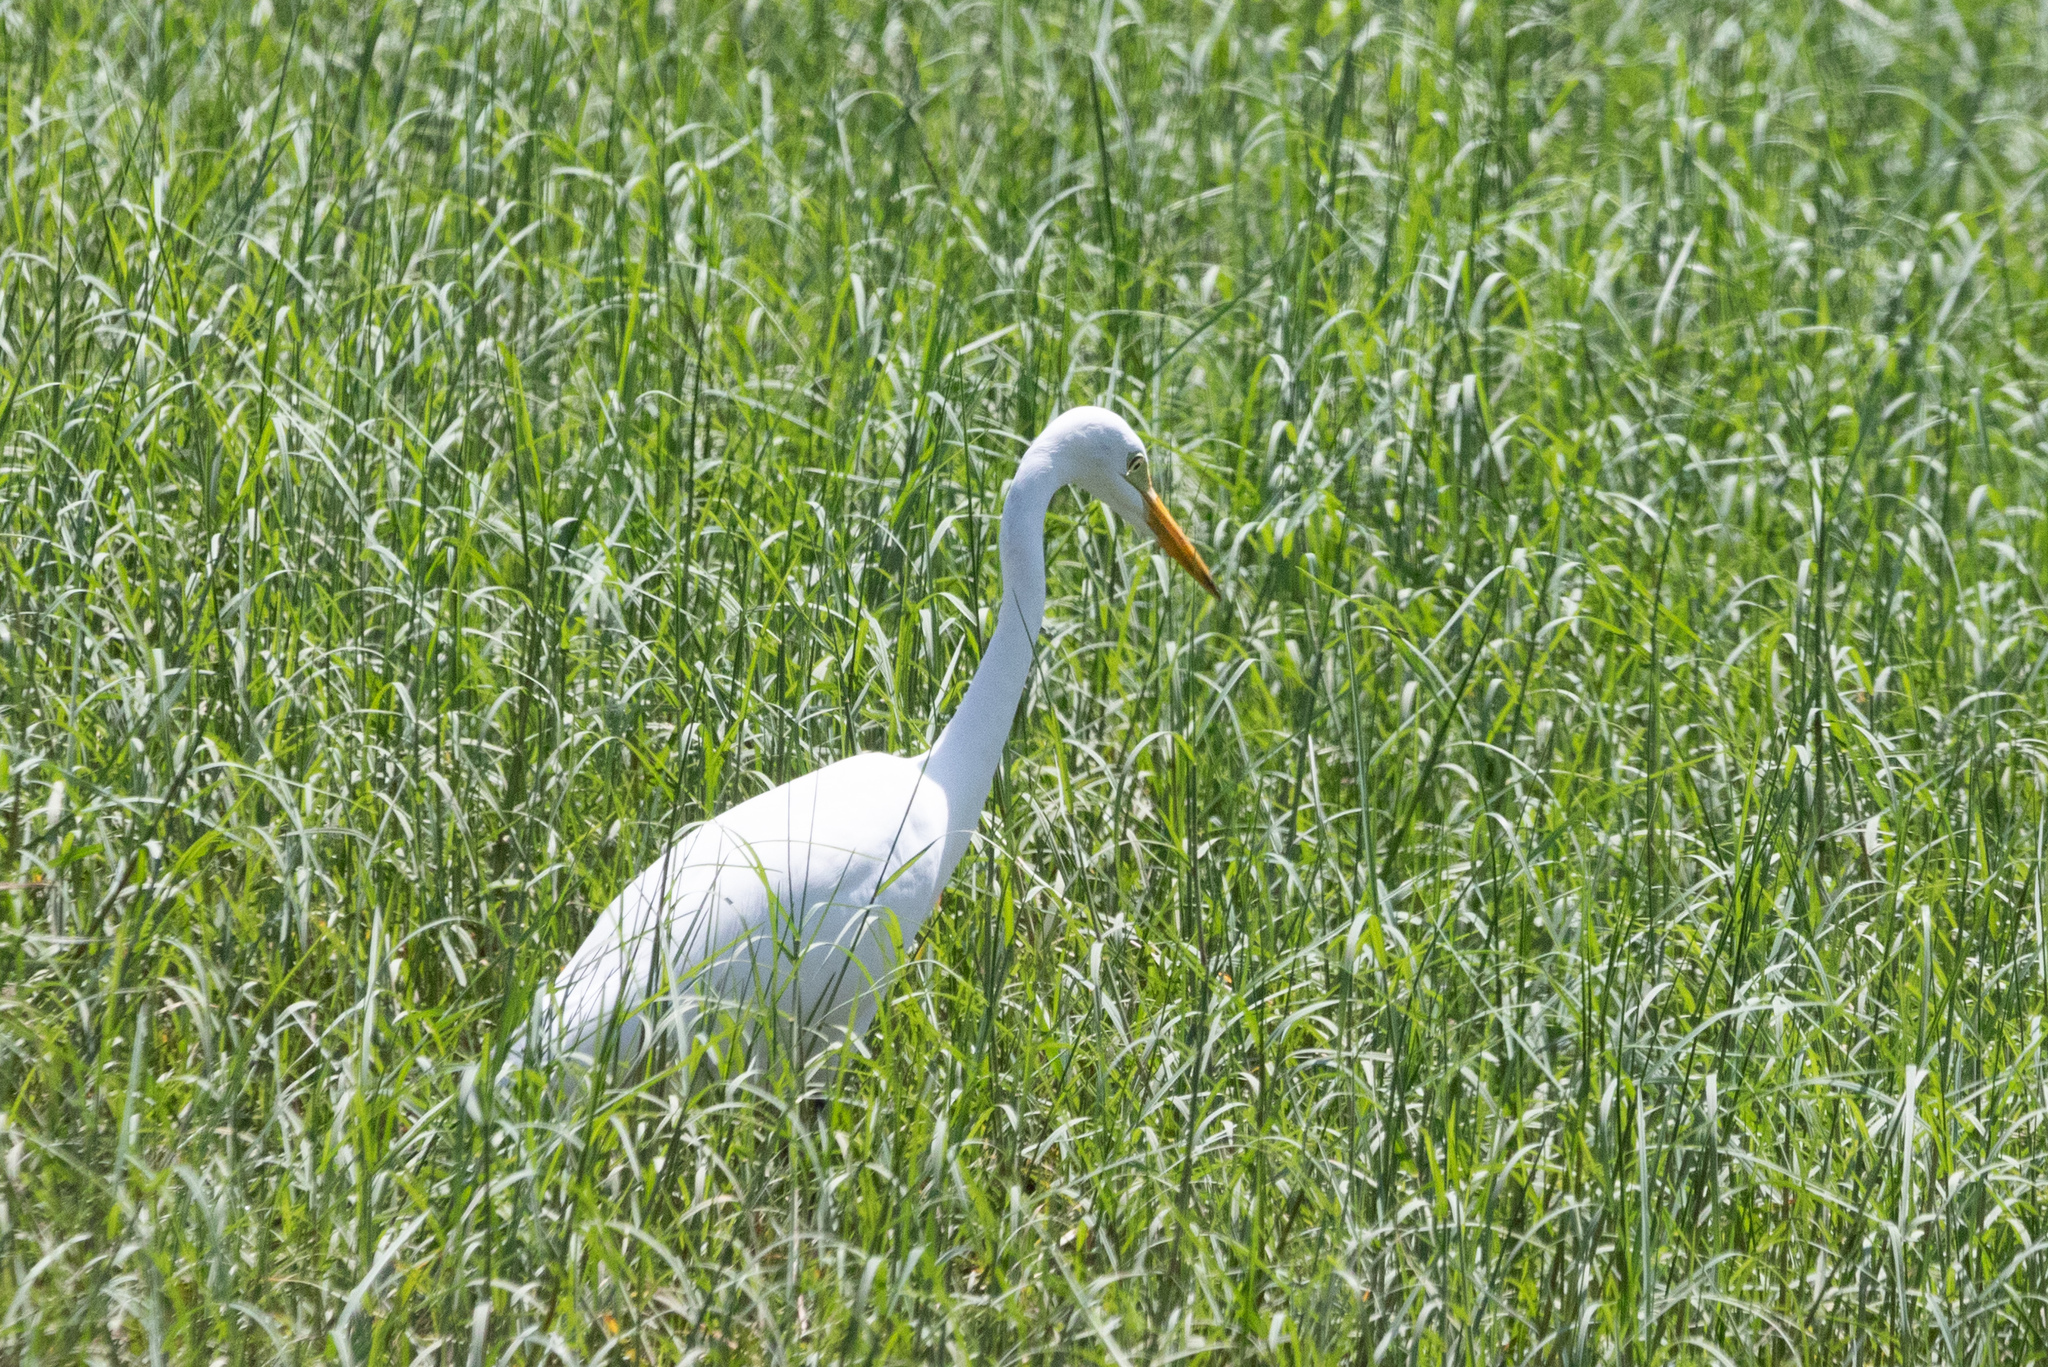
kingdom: Animalia
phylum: Chordata
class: Aves
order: Pelecaniformes
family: Ardeidae
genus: Egretta
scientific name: Egretta intermedia
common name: Intermediate egret
